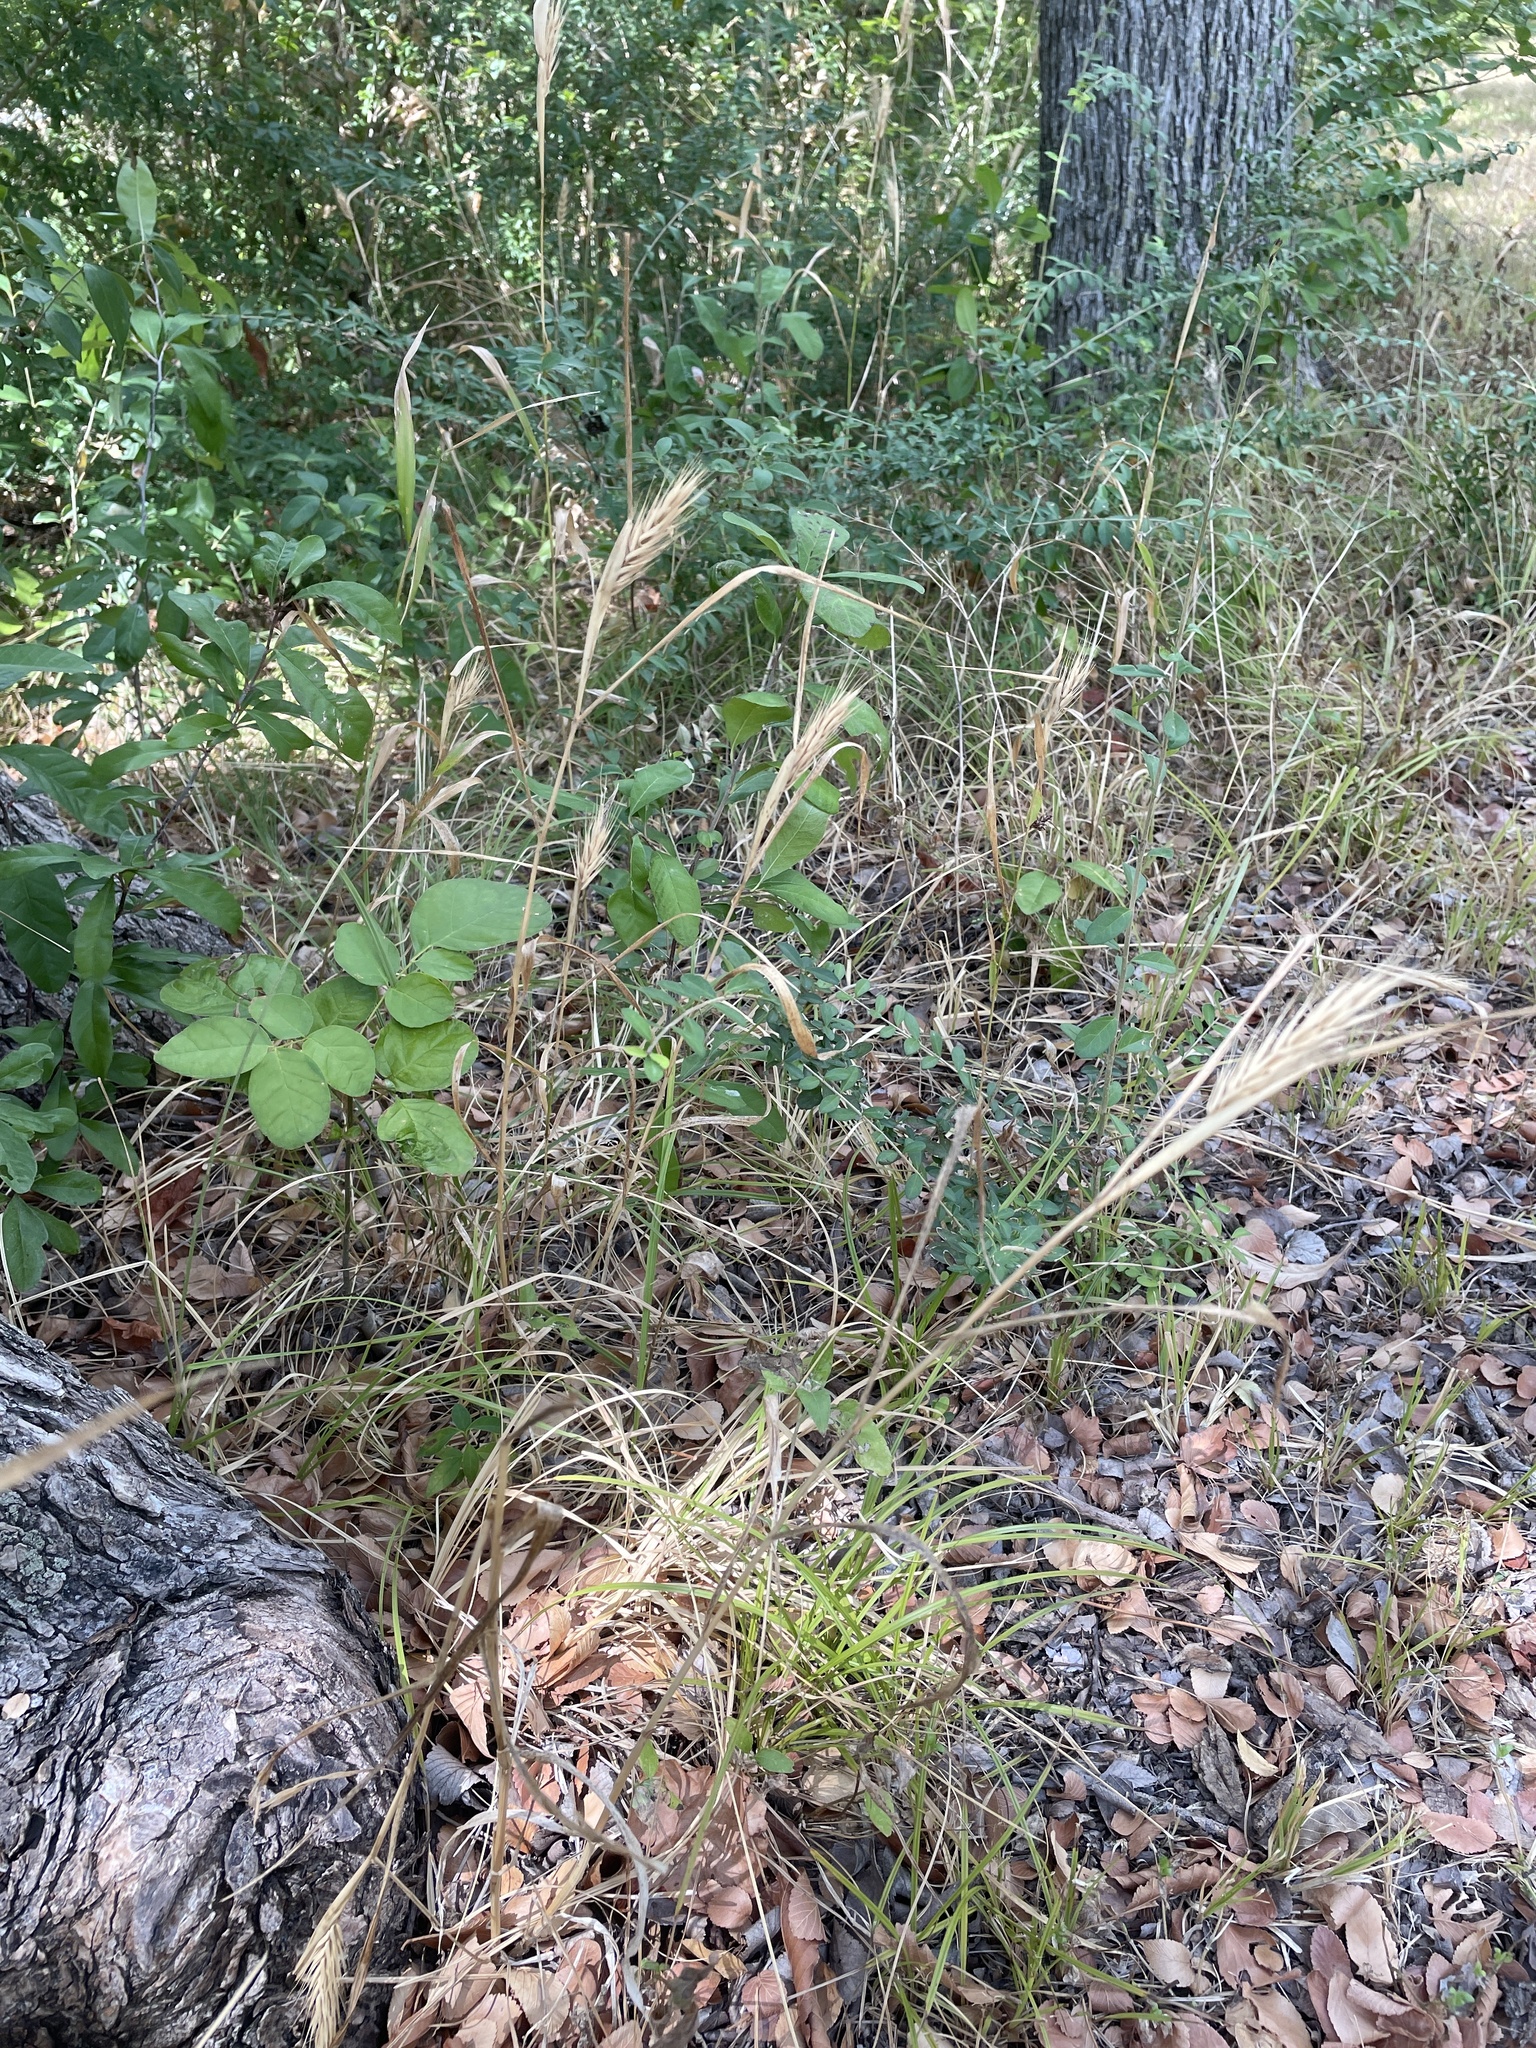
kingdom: Plantae
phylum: Tracheophyta
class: Liliopsida
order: Poales
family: Poaceae
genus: Elymus
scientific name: Elymus virginicus
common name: Common eastern wildrye
